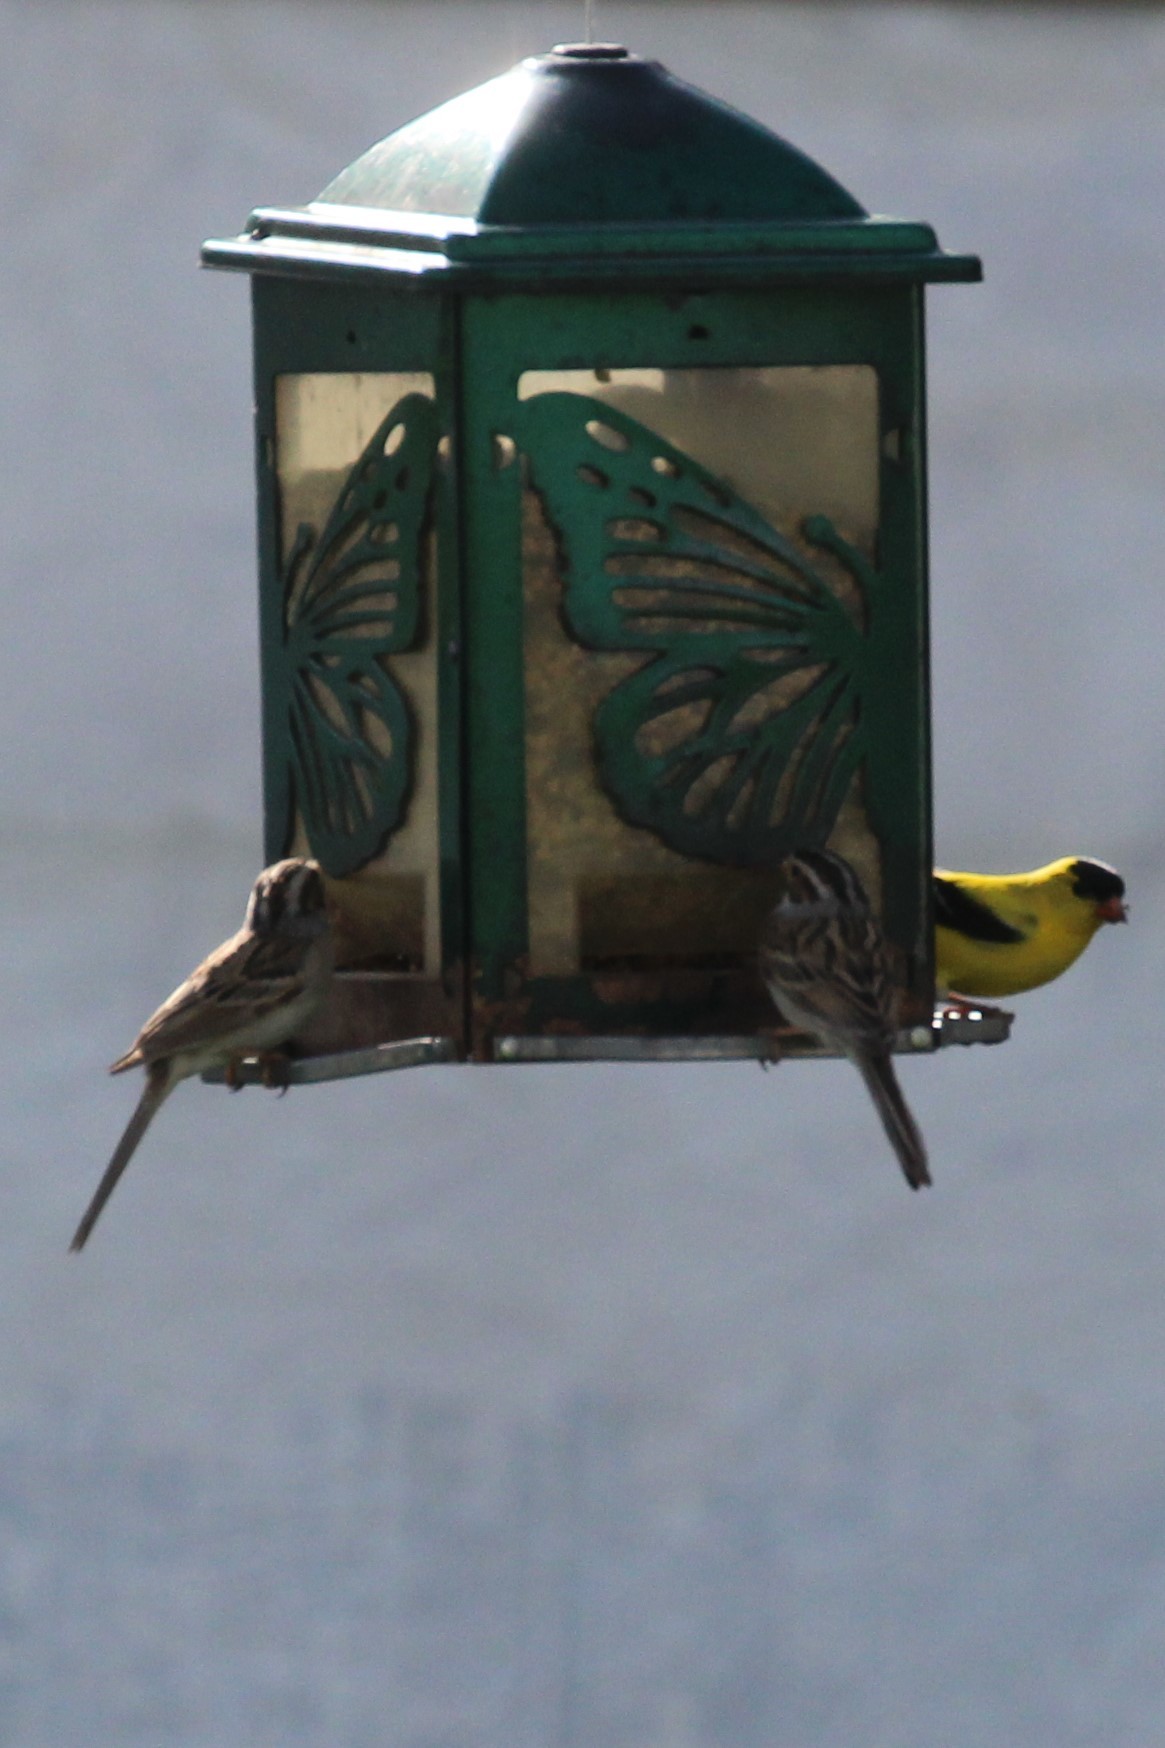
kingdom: Animalia
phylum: Chordata
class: Aves
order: Passeriformes
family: Fringillidae
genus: Spinus
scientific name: Spinus tristis
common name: American goldfinch
